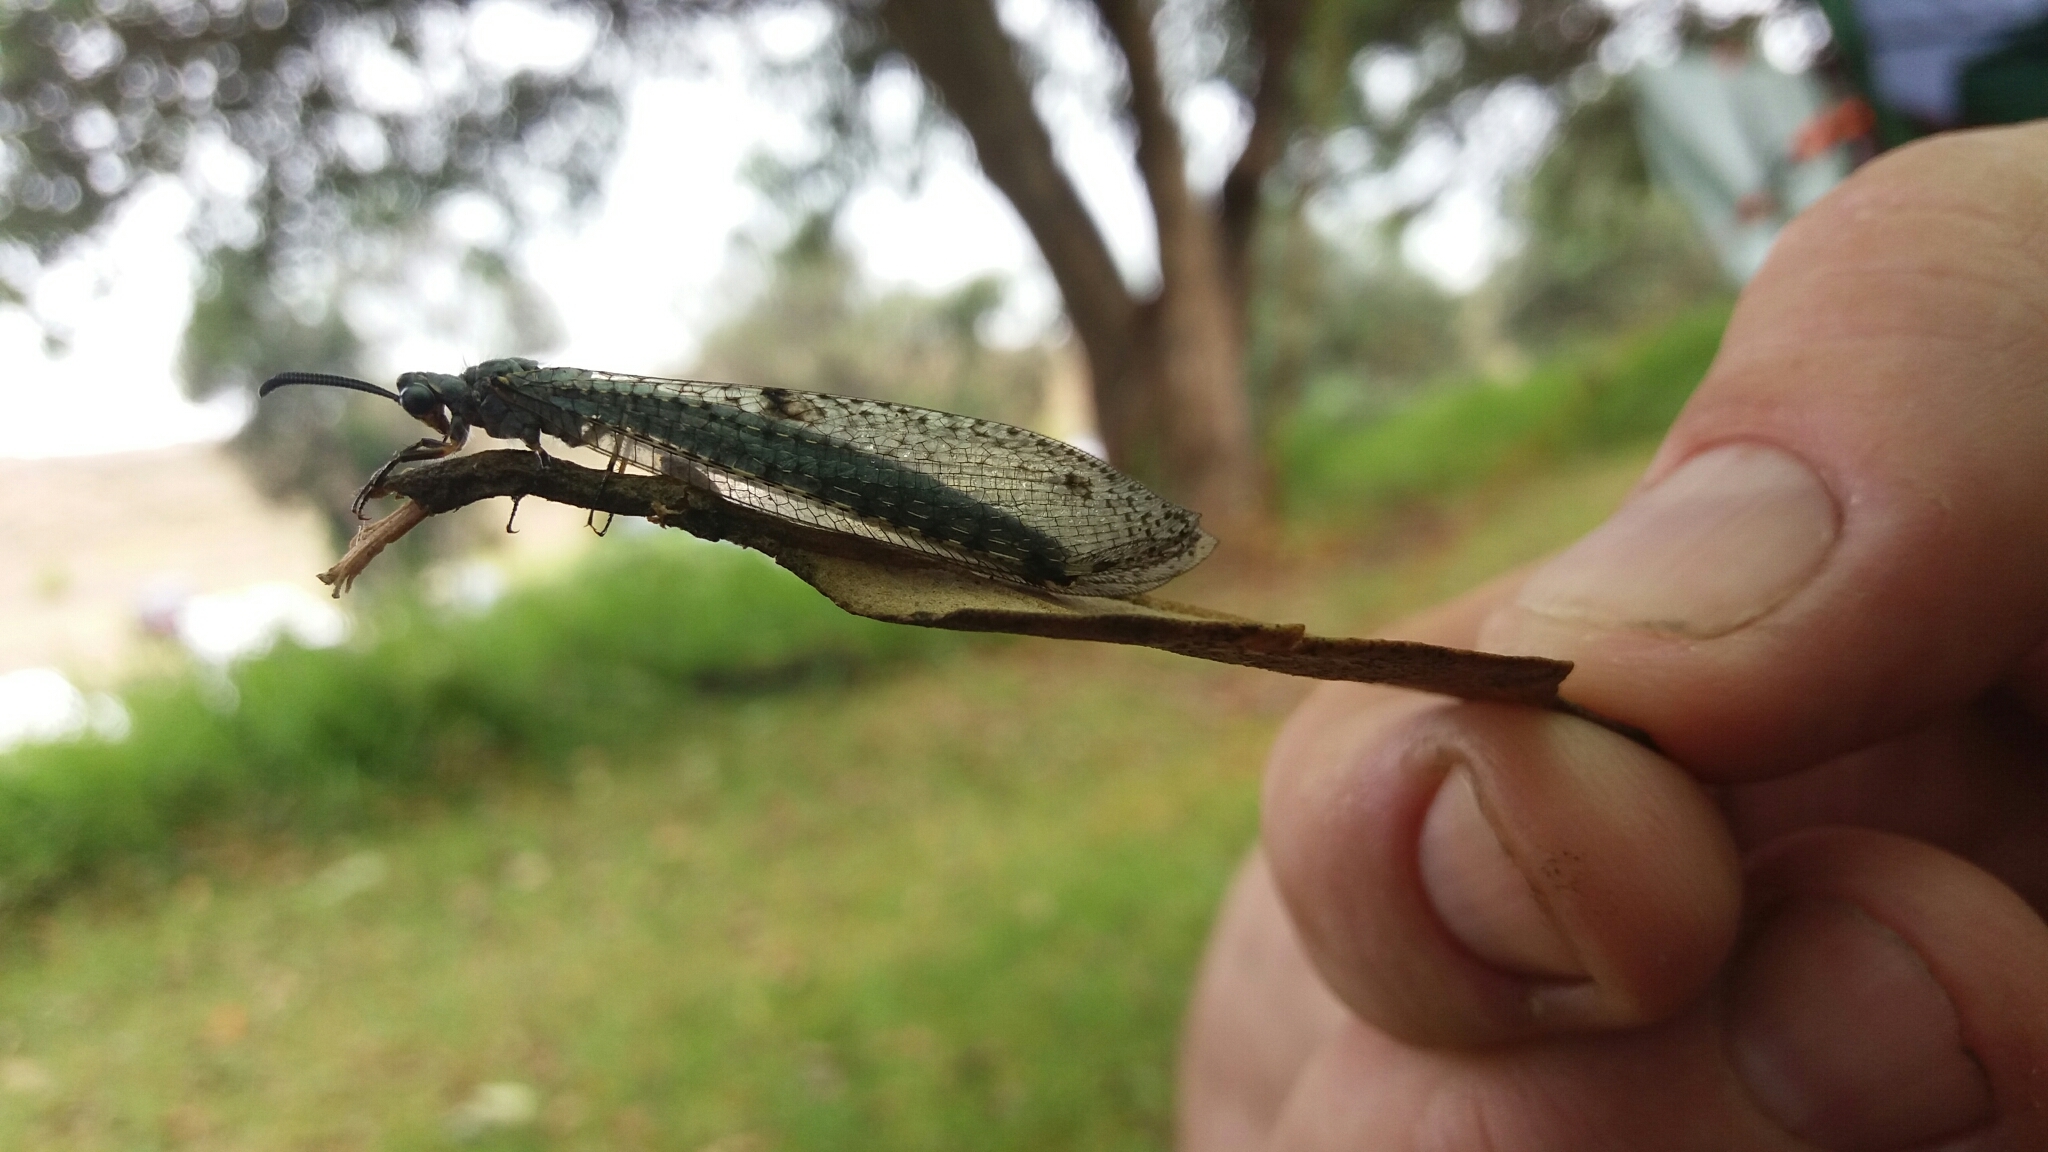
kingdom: Animalia
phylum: Arthropoda
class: Insecta
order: Neuroptera
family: Myrmeleontidae
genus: Weeleus
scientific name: Weeleus acutus
